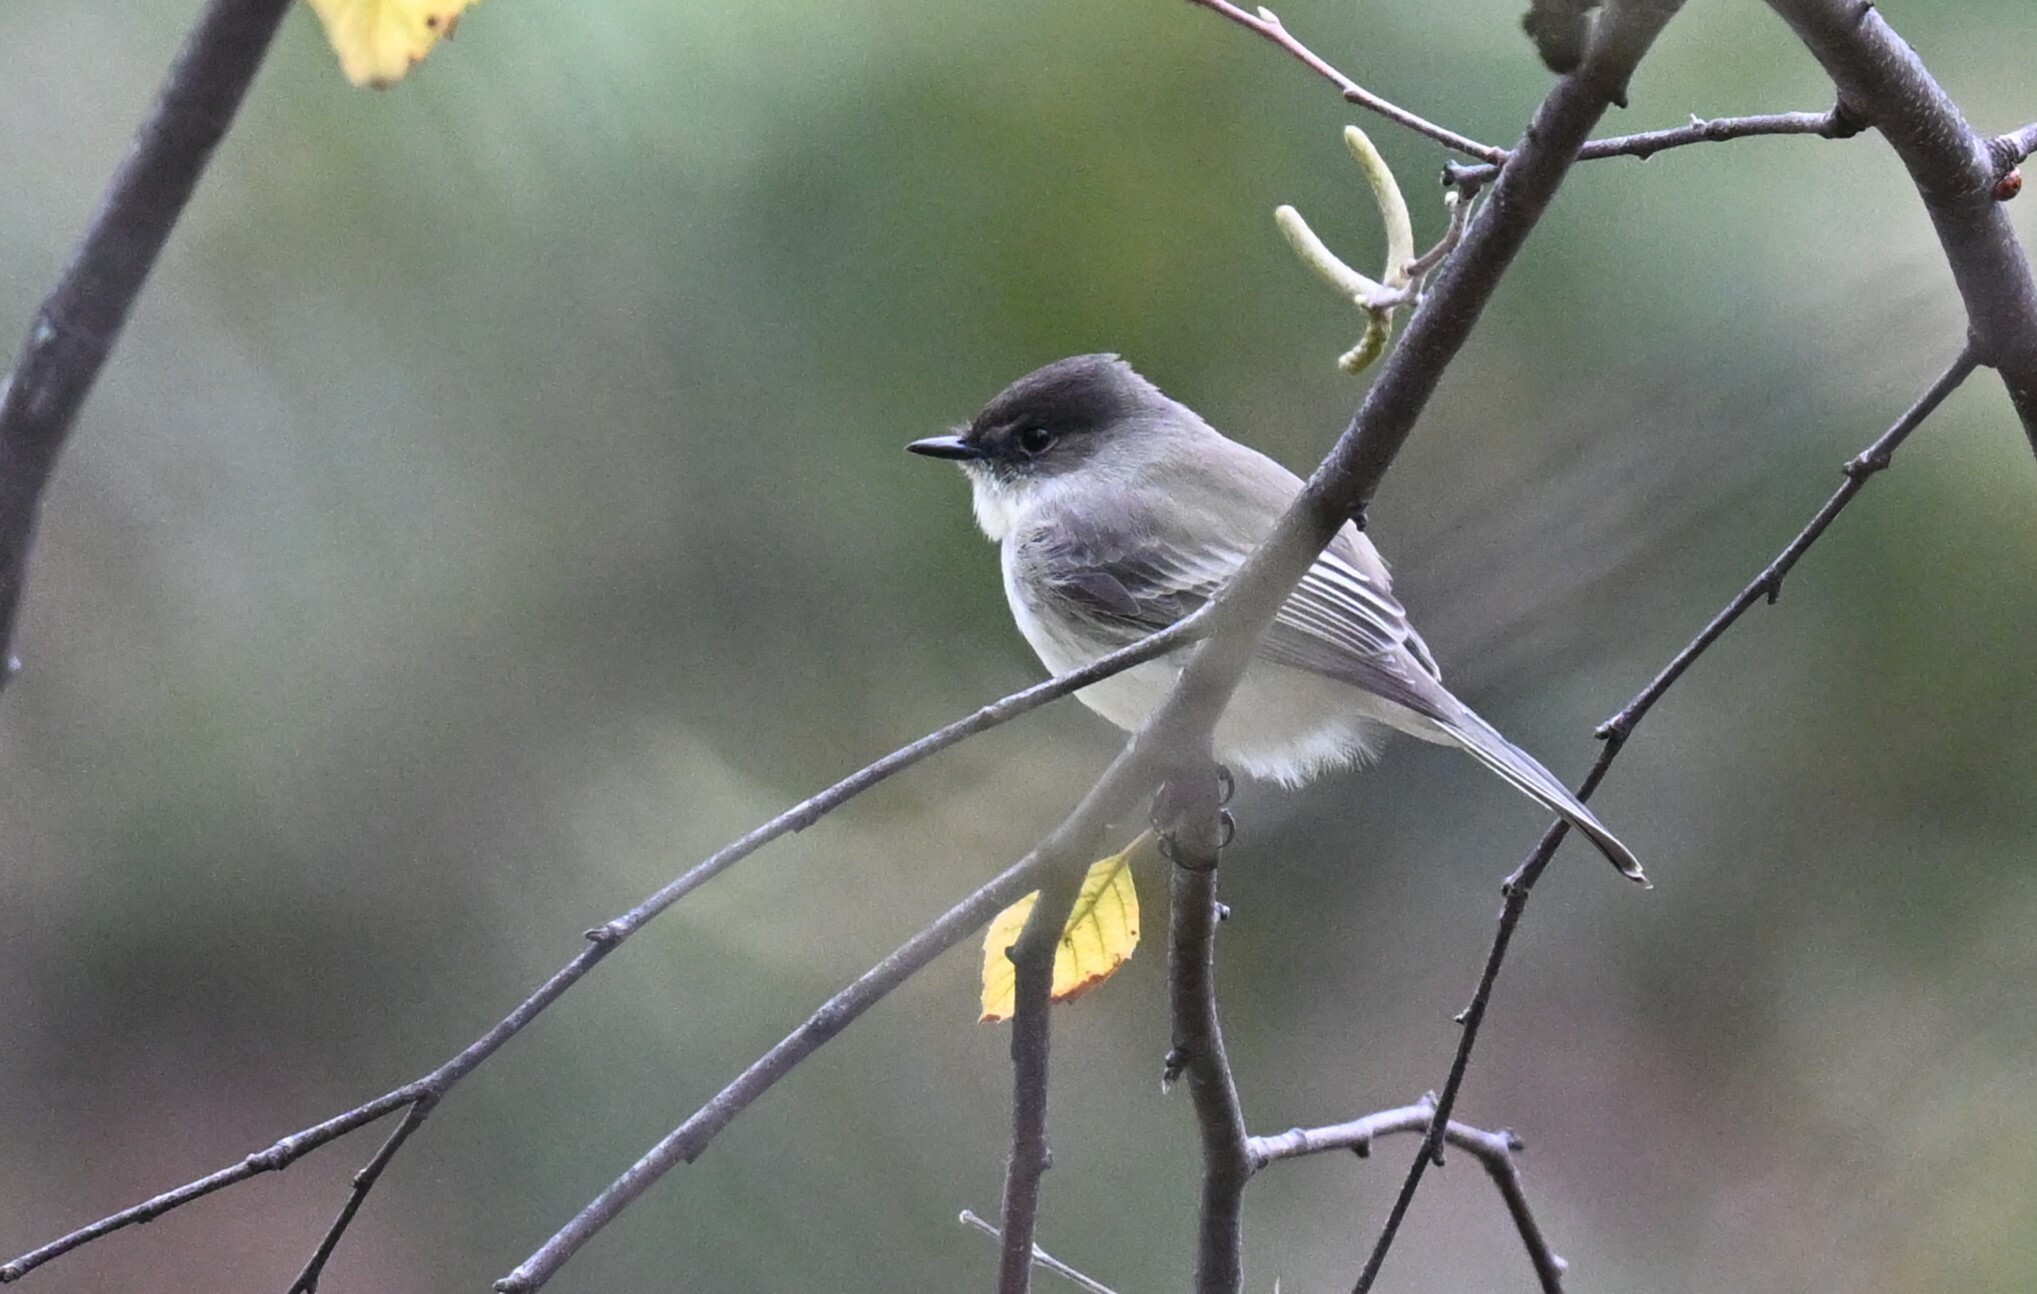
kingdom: Animalia
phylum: Chordata
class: Aves
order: Passeriformes
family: Tyrannidae
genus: Sayornis
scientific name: Sayornis phoebe
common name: Eastern phoebe
